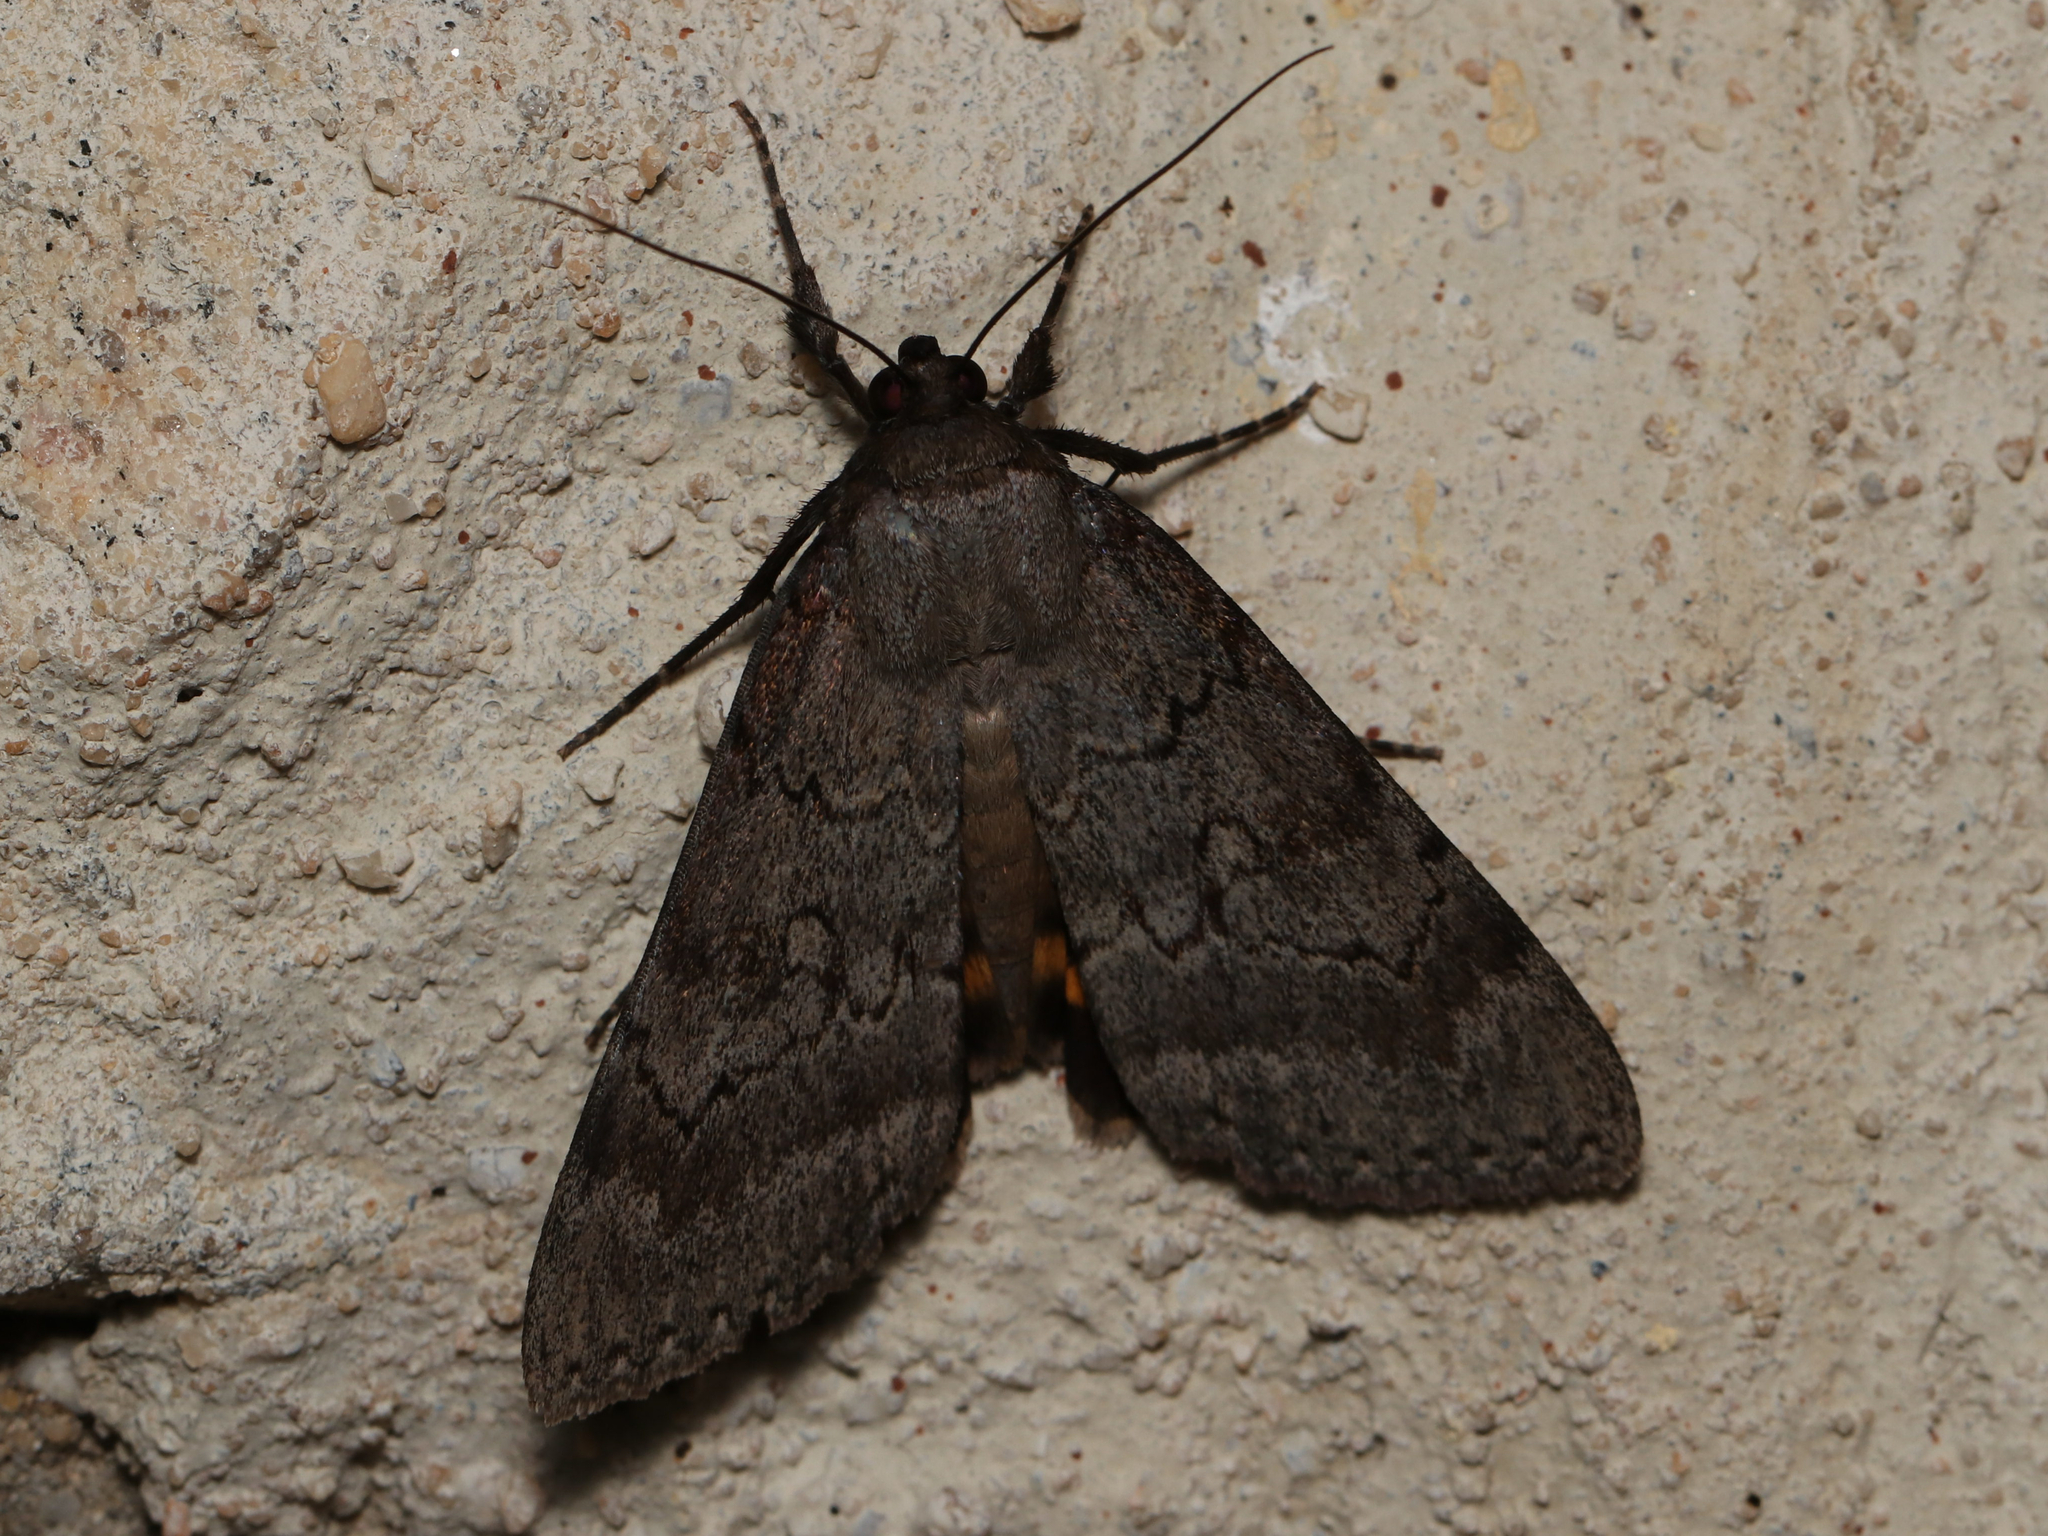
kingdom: Animalia
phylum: Arthropoda
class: Insecta
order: Lepidoptera
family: Erebidae
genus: Catocala
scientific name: Catocala serena
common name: Serene underwing
